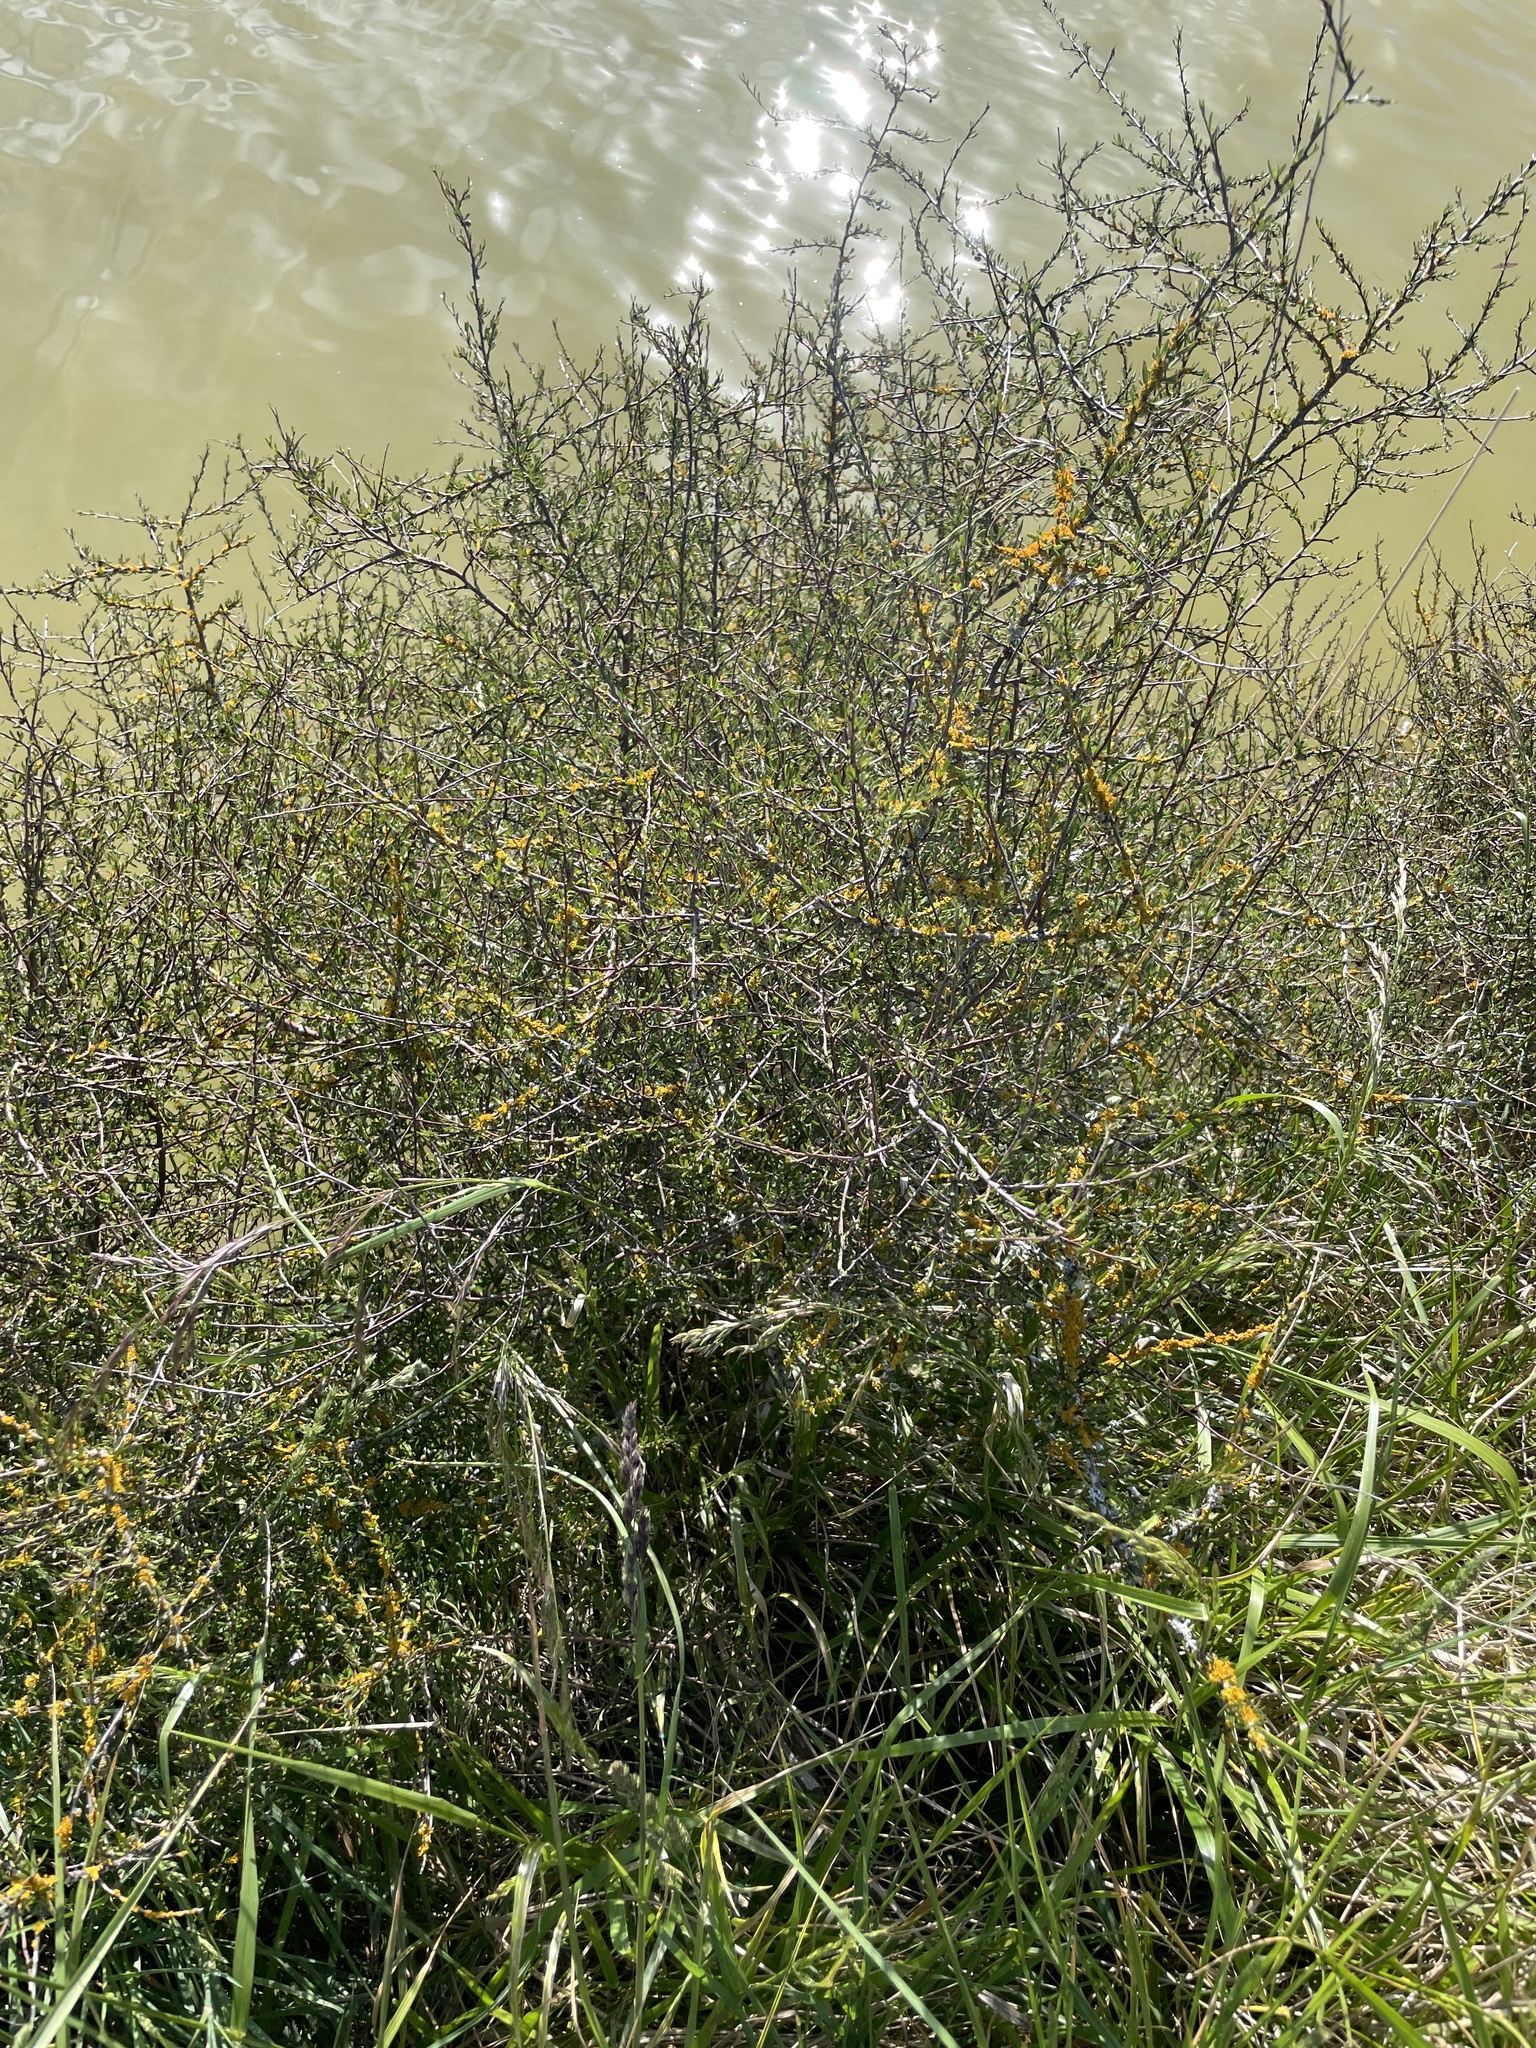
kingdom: Plantae
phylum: Tracheophyta
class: Magnoliopsida
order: Malvales
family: Malvaceae
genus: Plagianthus
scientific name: Plagianthus divaricatus
